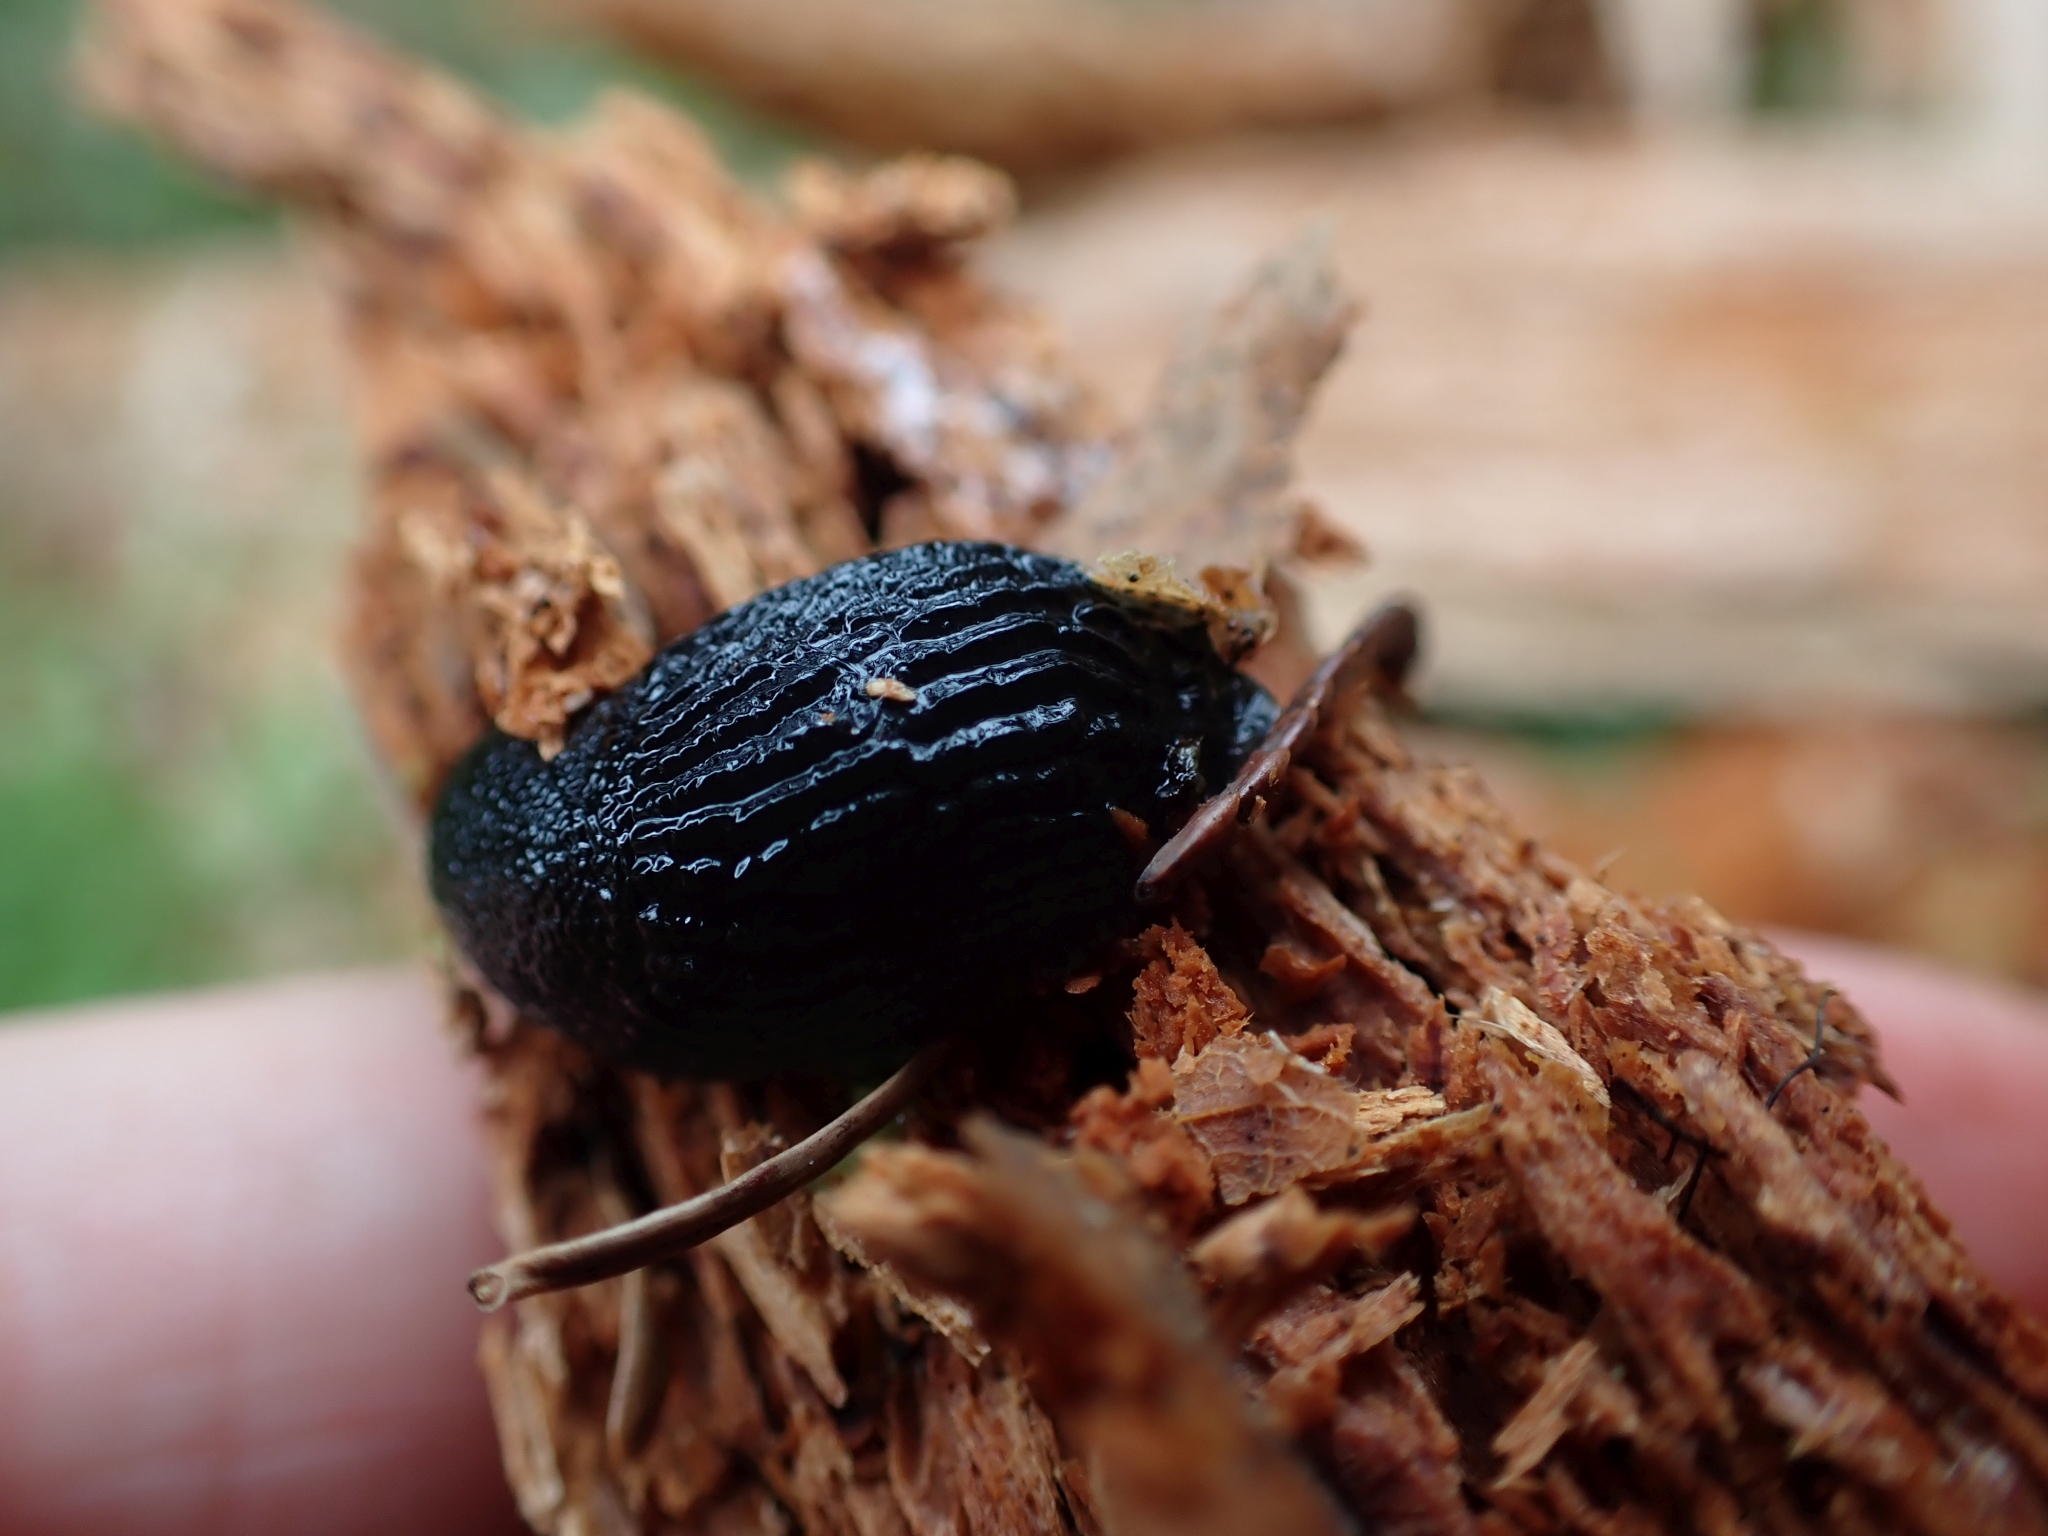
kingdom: Animalia
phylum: Mollusca
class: Gastropoda
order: Stylommatophora
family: Arionidae
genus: Arion
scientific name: Arion
